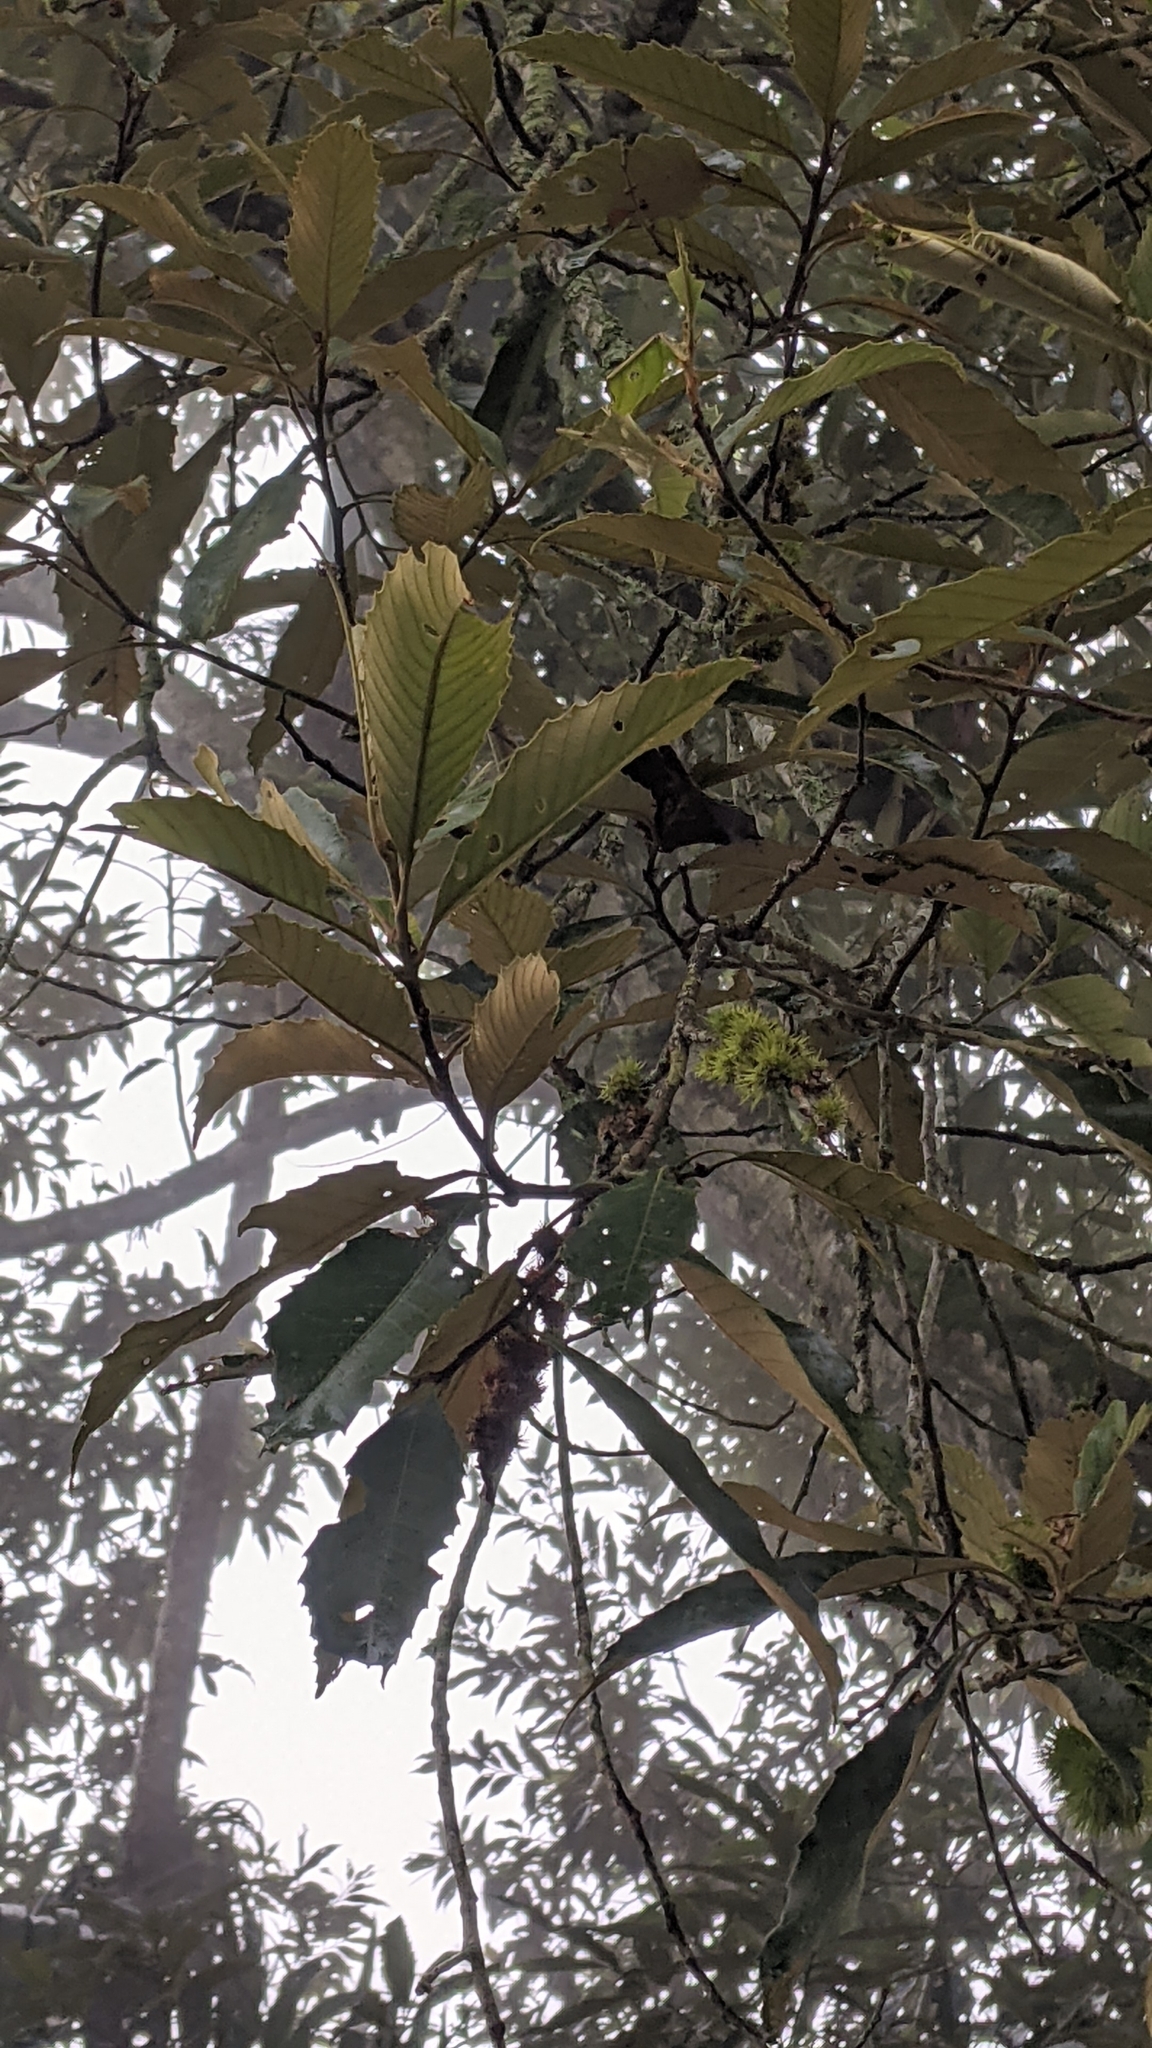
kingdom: Plantae
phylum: Tracheophyta
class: Magnoliopsida
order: Fagales
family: Fagaceae
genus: Castanopsis
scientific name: Castanopsis faberi
